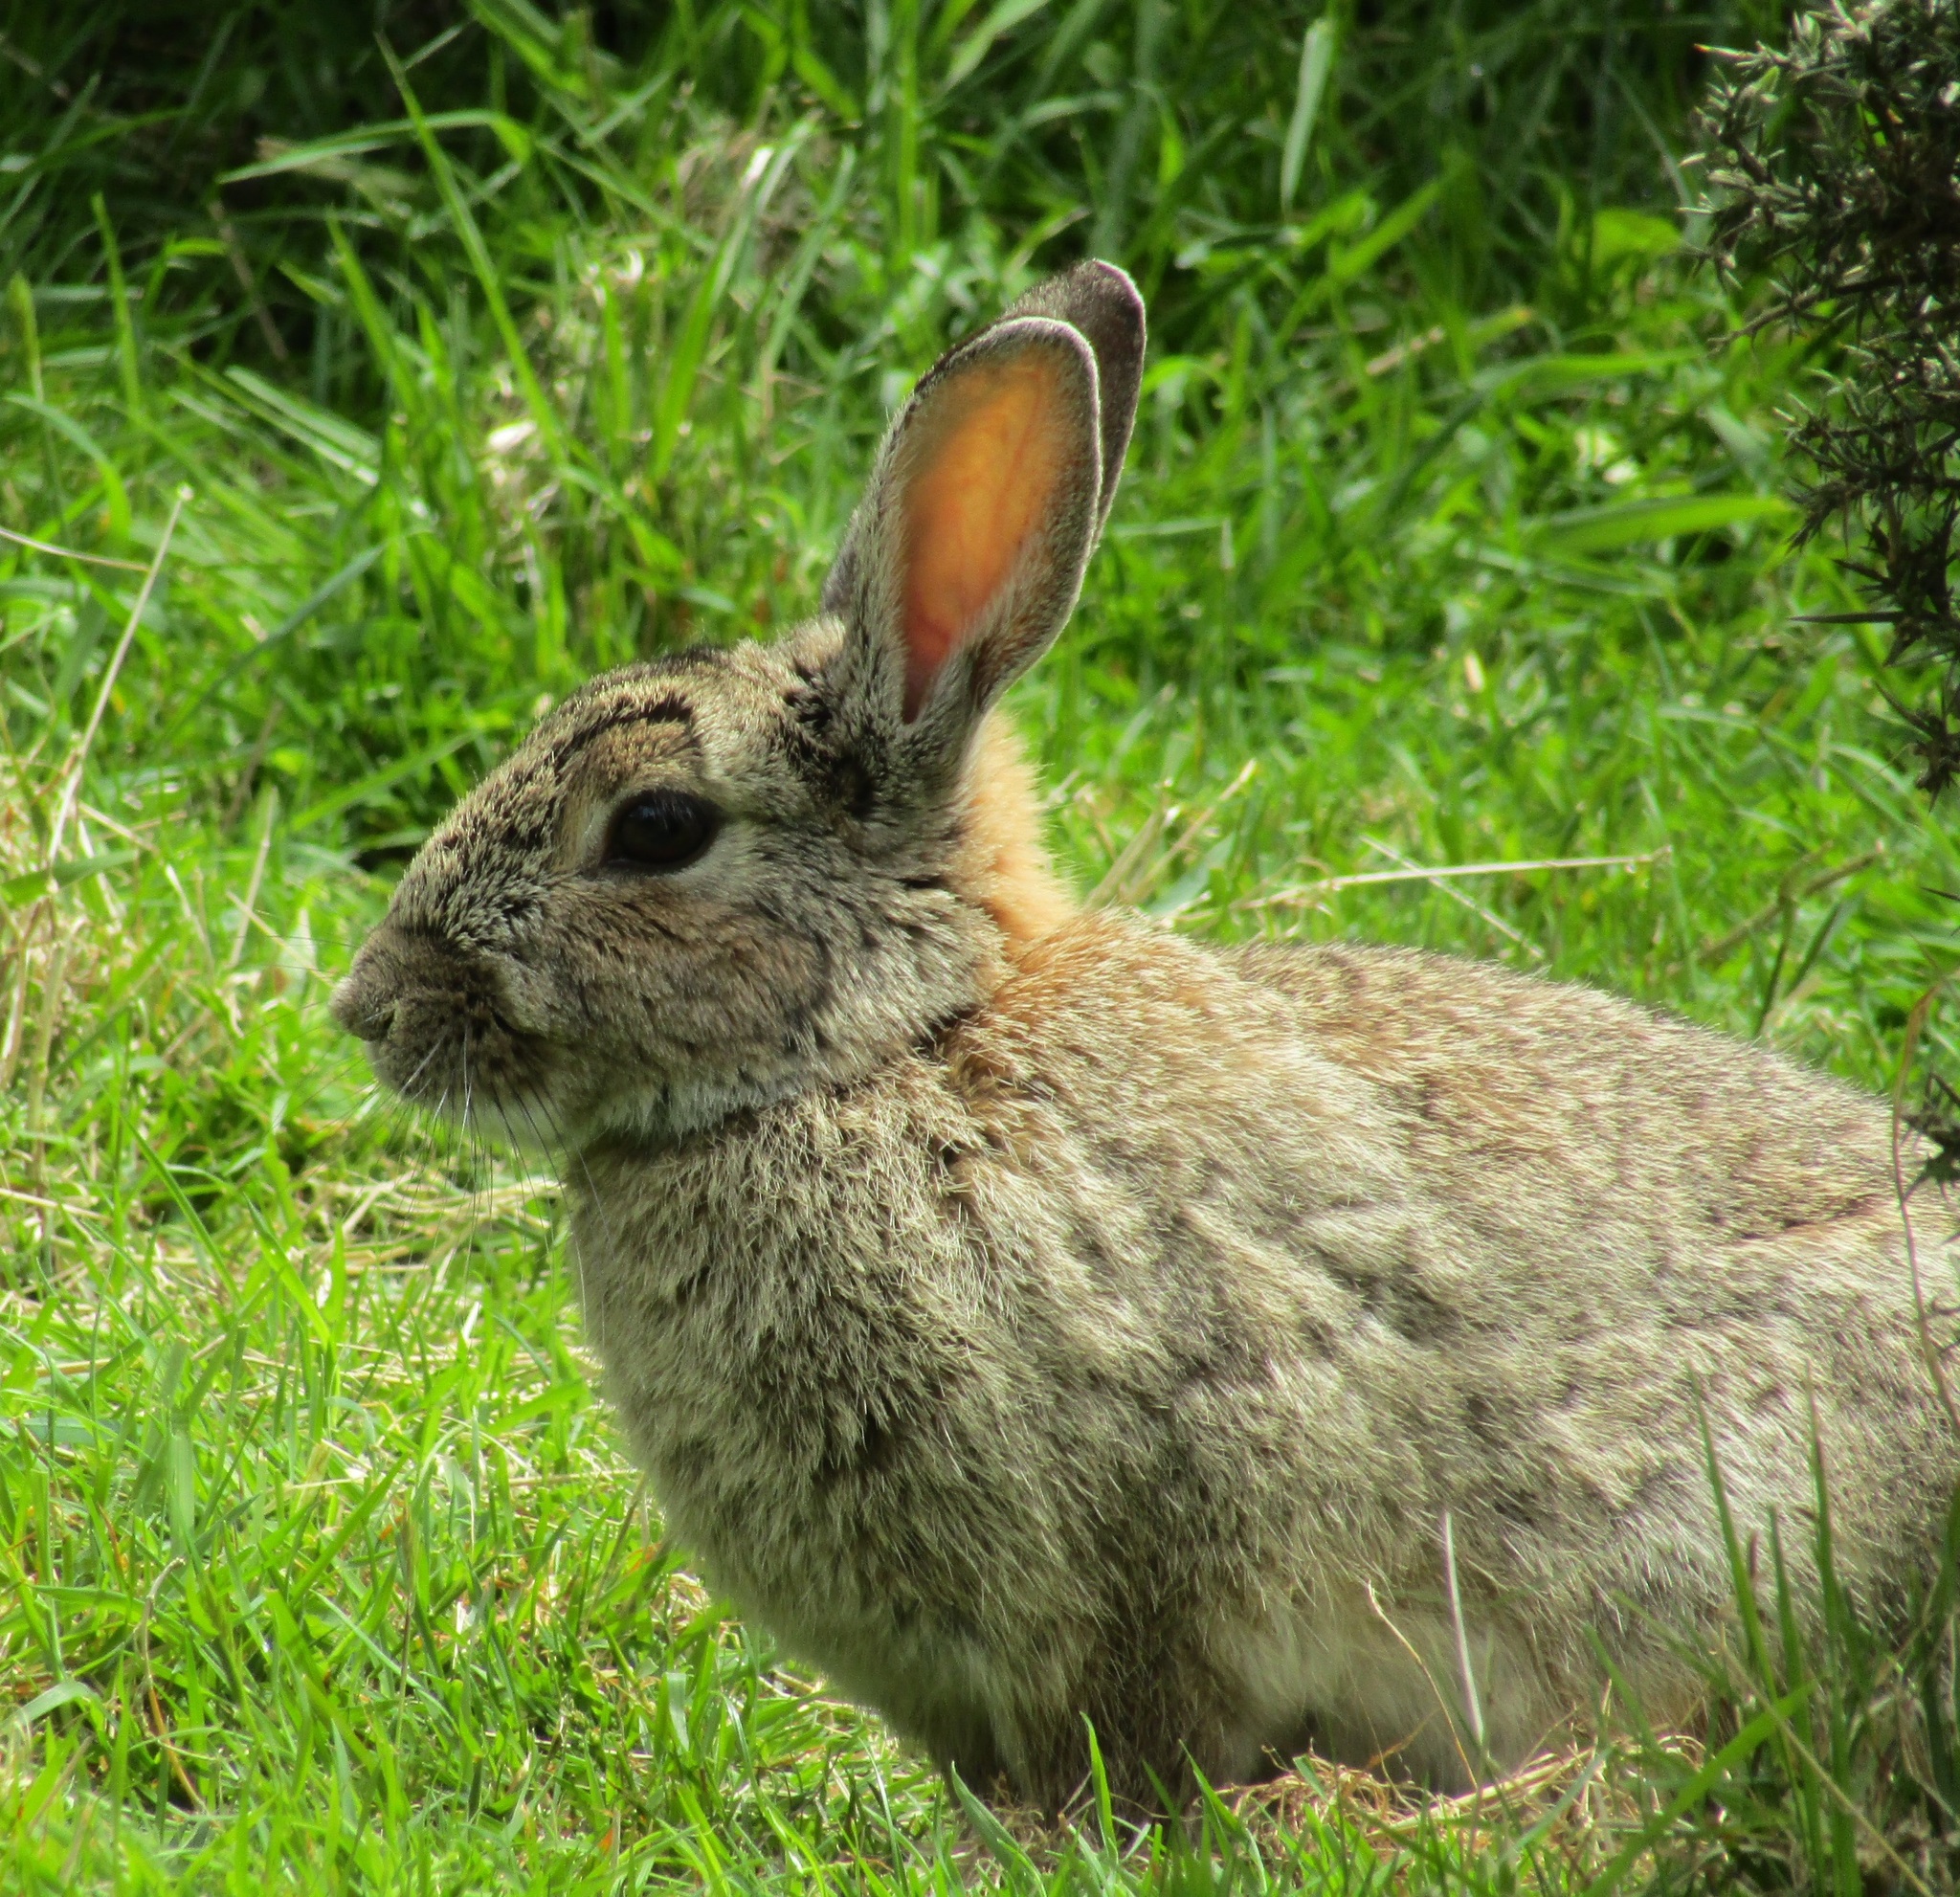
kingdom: Animalia
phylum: Chordata
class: Mammalia
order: Lagomorpha
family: Leporidae
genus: Oryctolagus
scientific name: Oryctolagus cuniculus
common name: European rabbit
